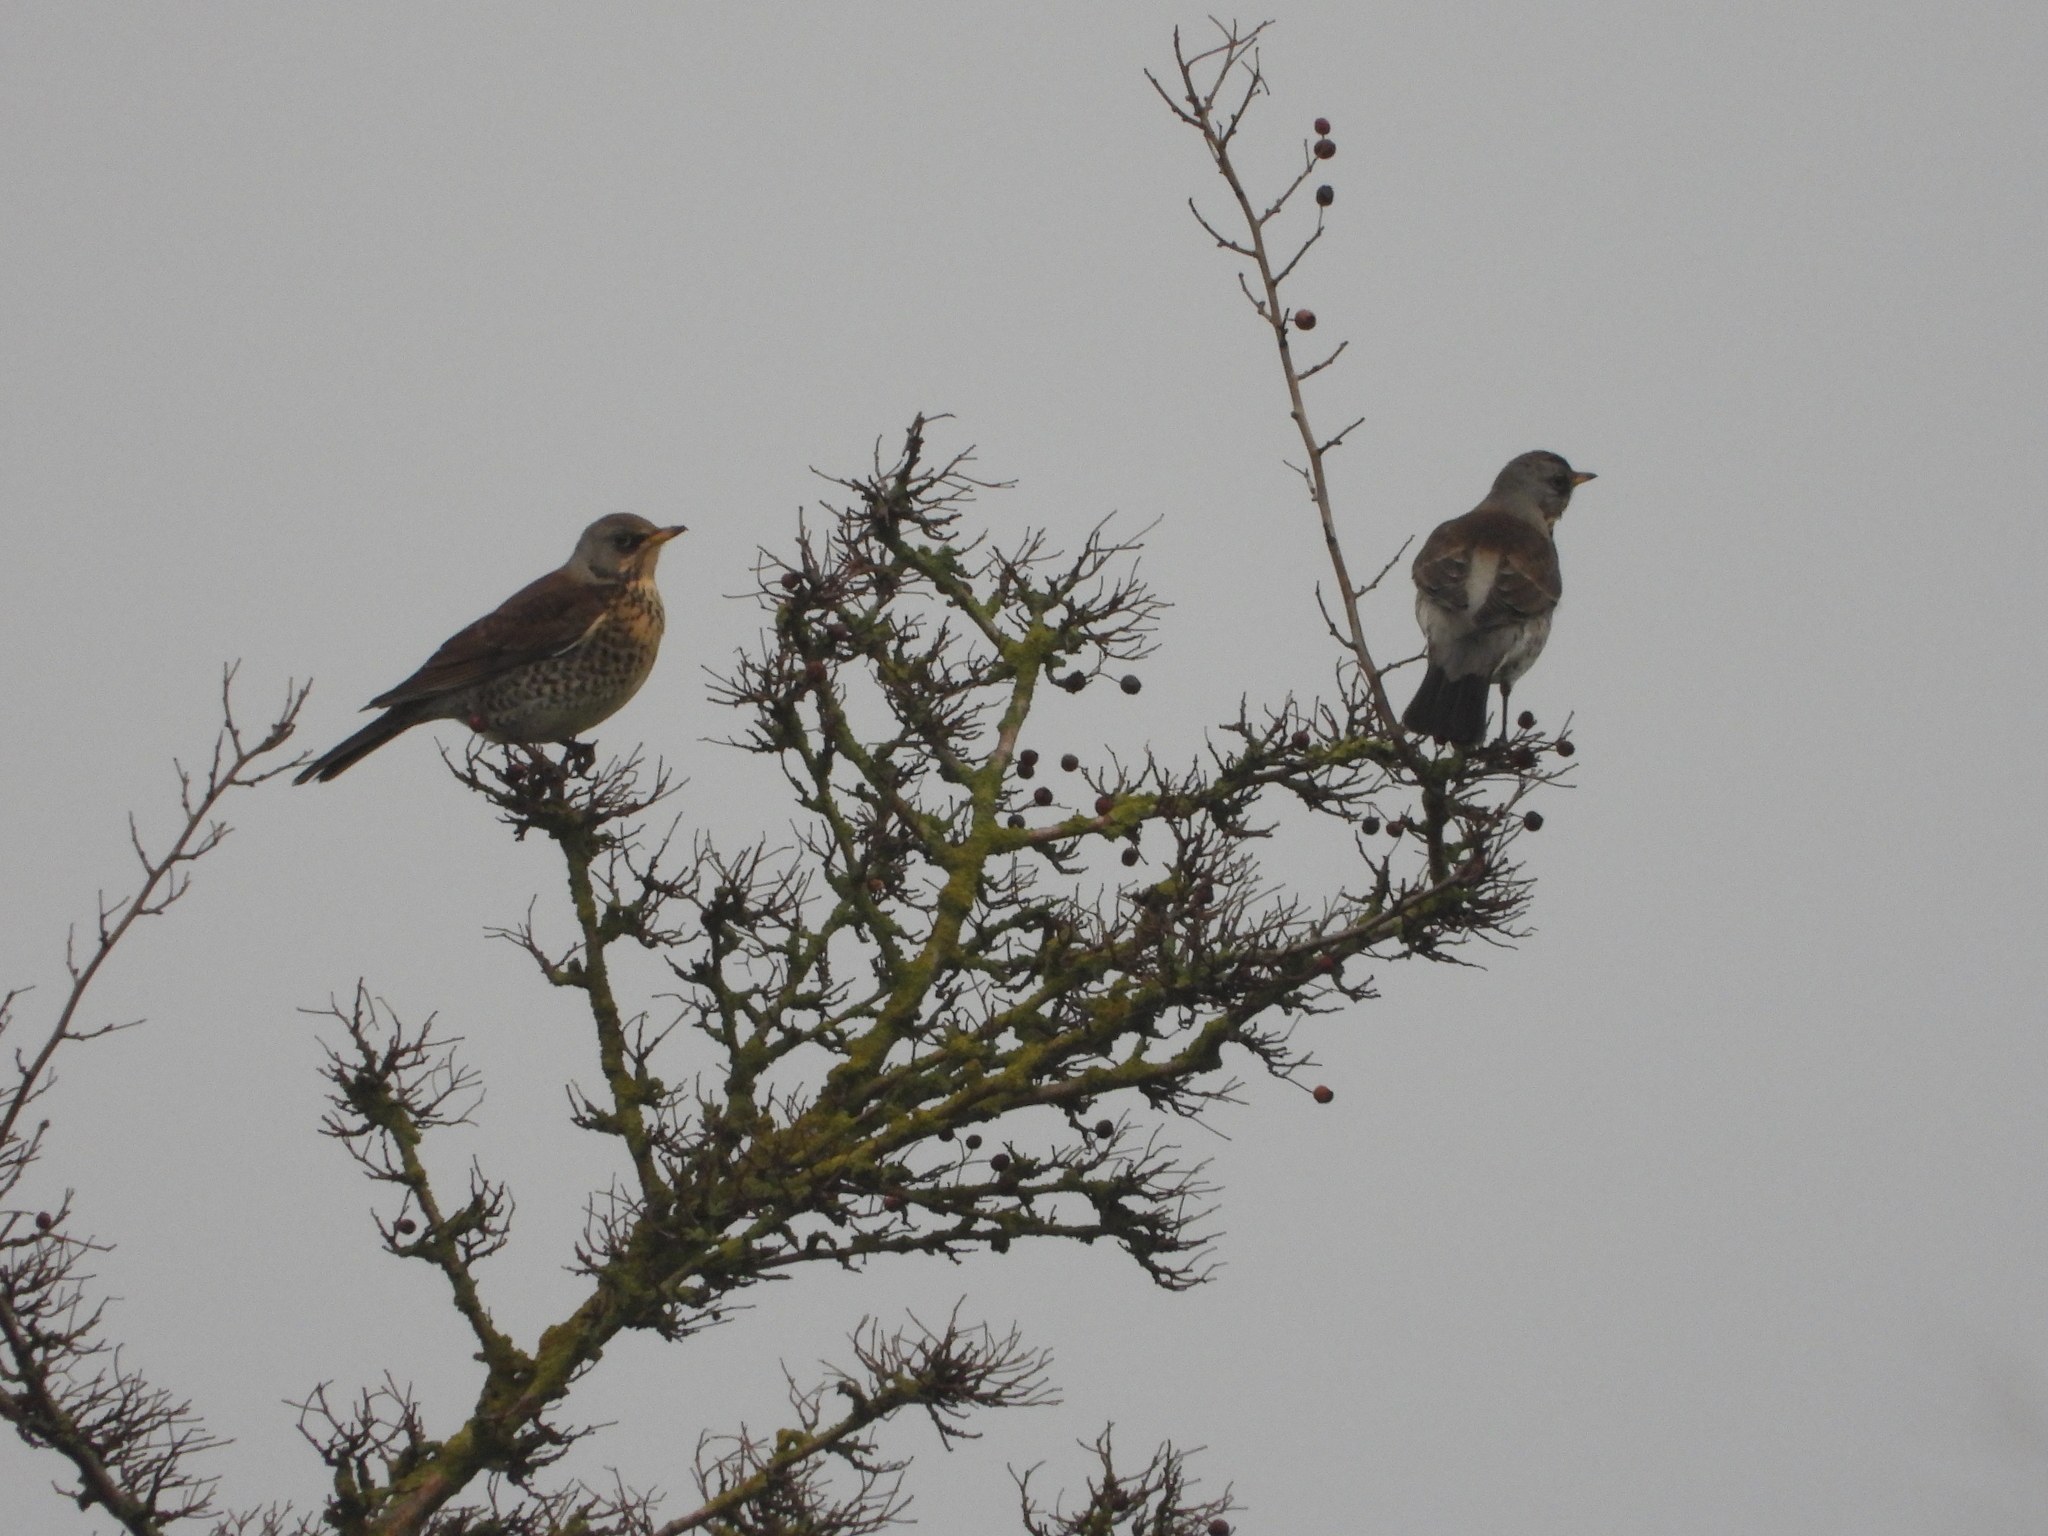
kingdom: Animalia
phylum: Chordata
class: Aves
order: Passeriformes
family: Turdidae
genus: Turdus
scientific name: Turdus pilaris
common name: Fieldfare
